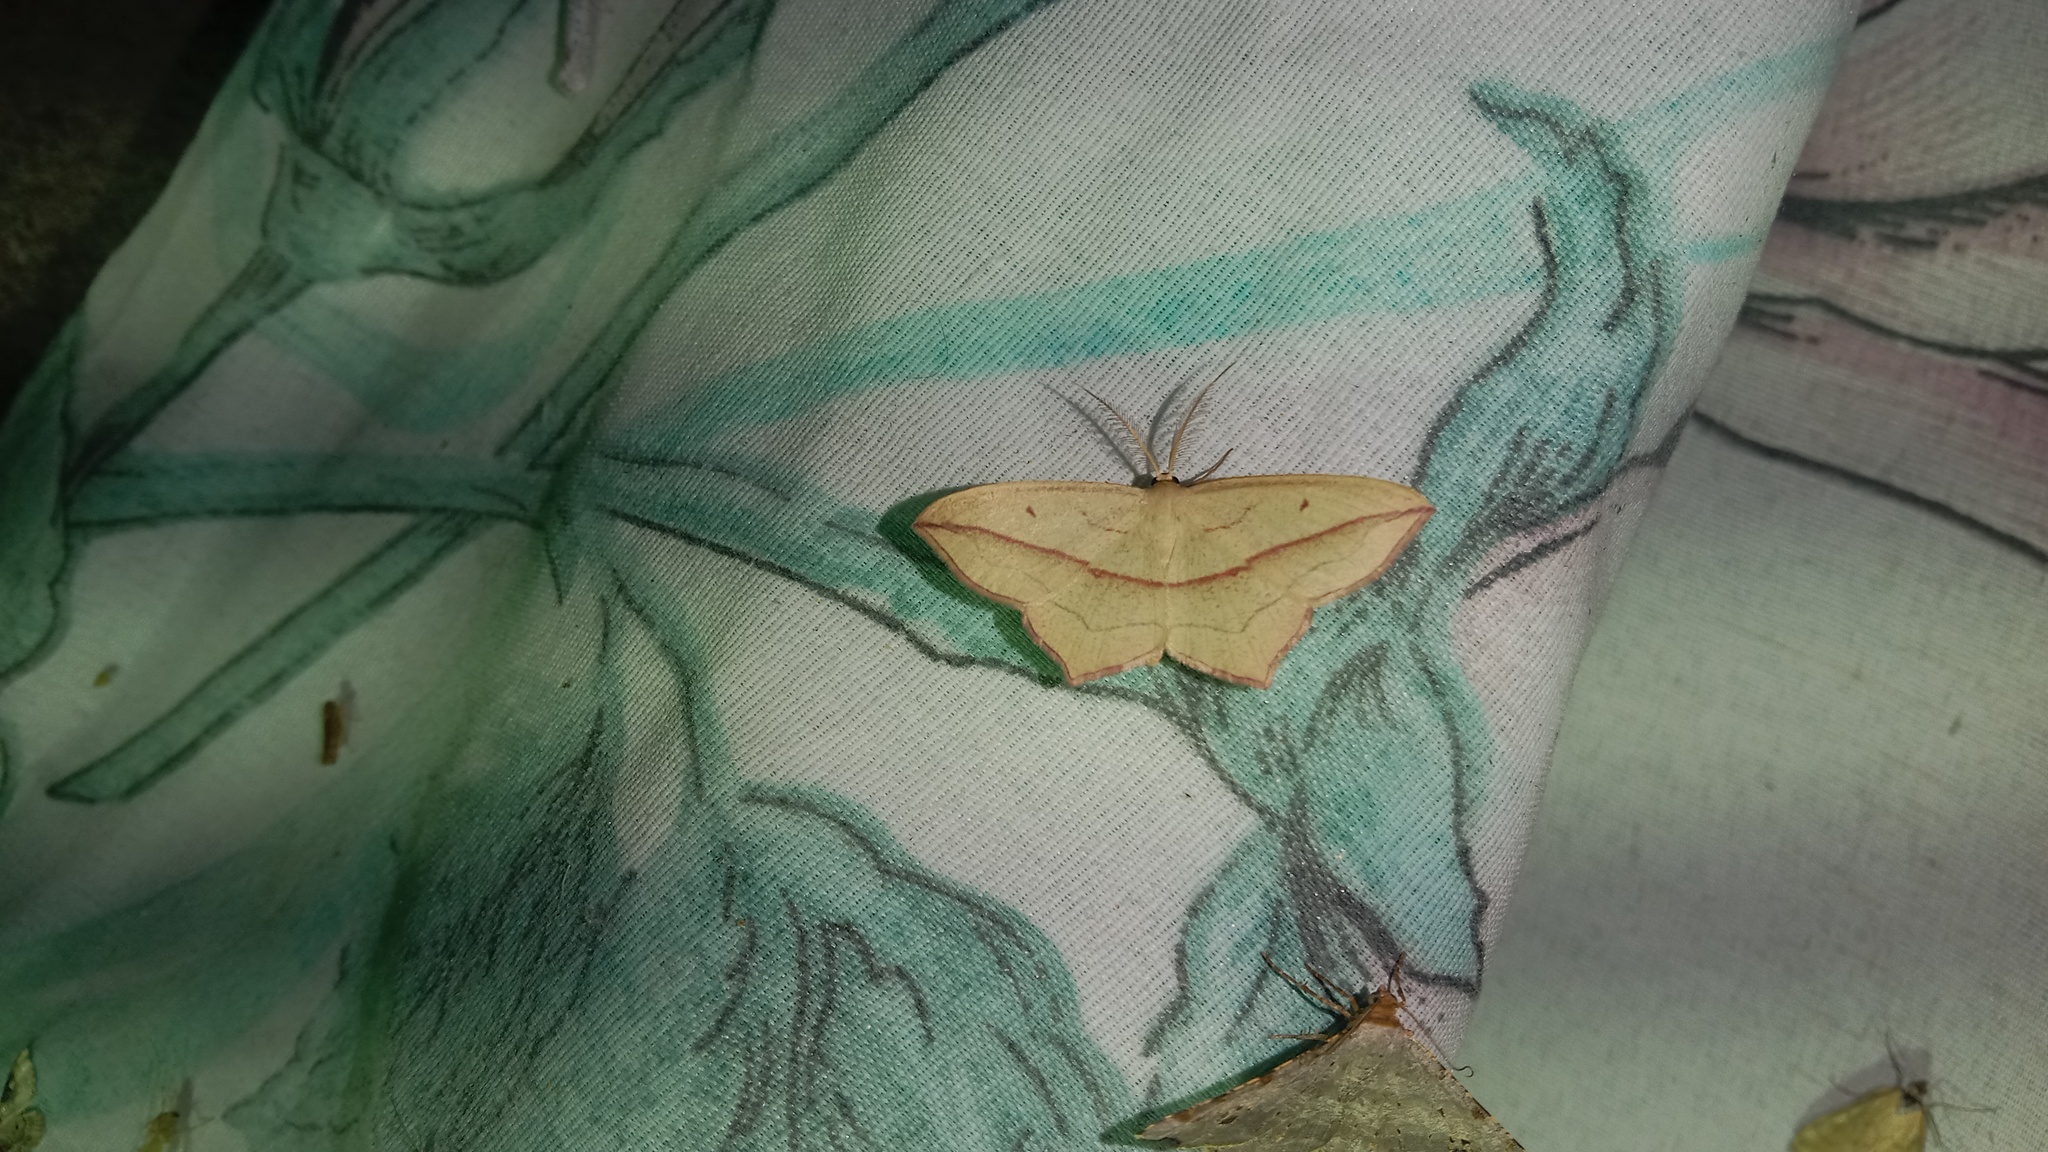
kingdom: Animalia
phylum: Arthropoda
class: Insecta
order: Lepidoptera
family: Geometridae
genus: Timandra
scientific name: Timandra comae
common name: Blood-vein
